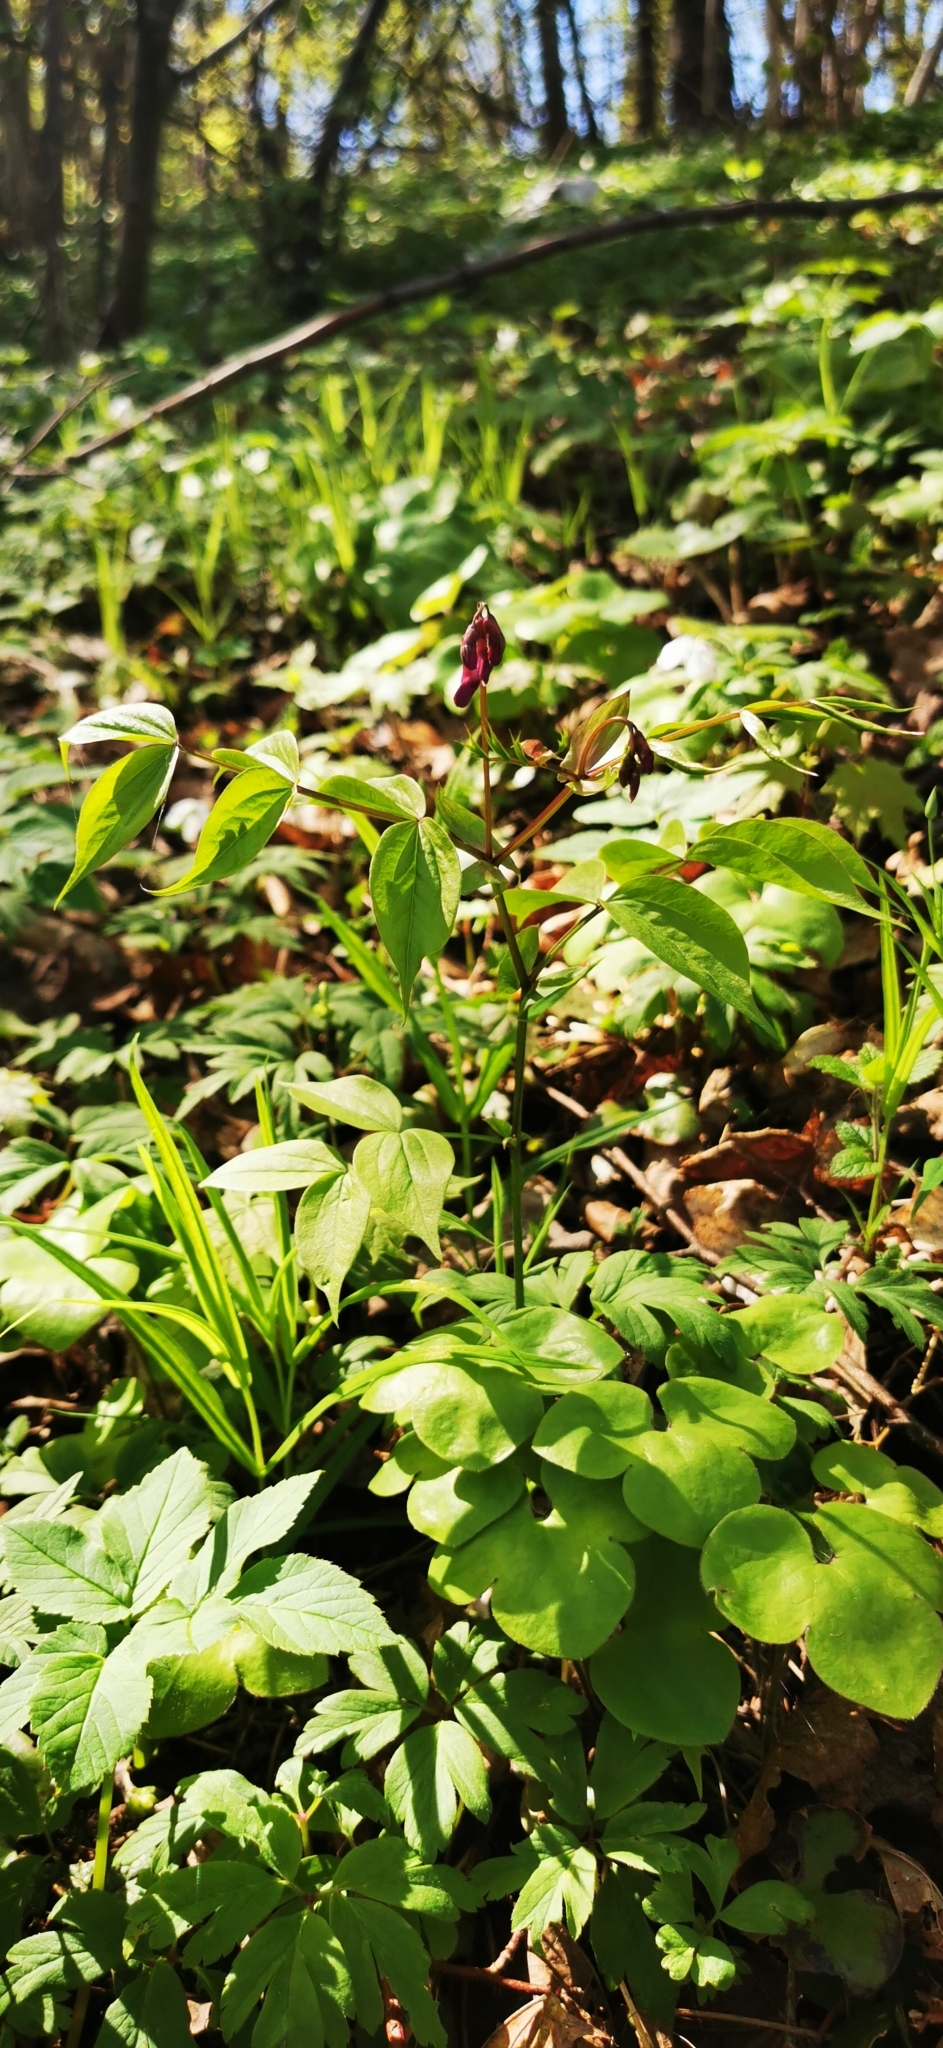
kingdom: Plantae
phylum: Tracheophyta
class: Magnoliopsida
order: Fabales
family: Fabaceae
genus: Lathyrus
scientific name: Lathyrus vernus
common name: Spring pea
